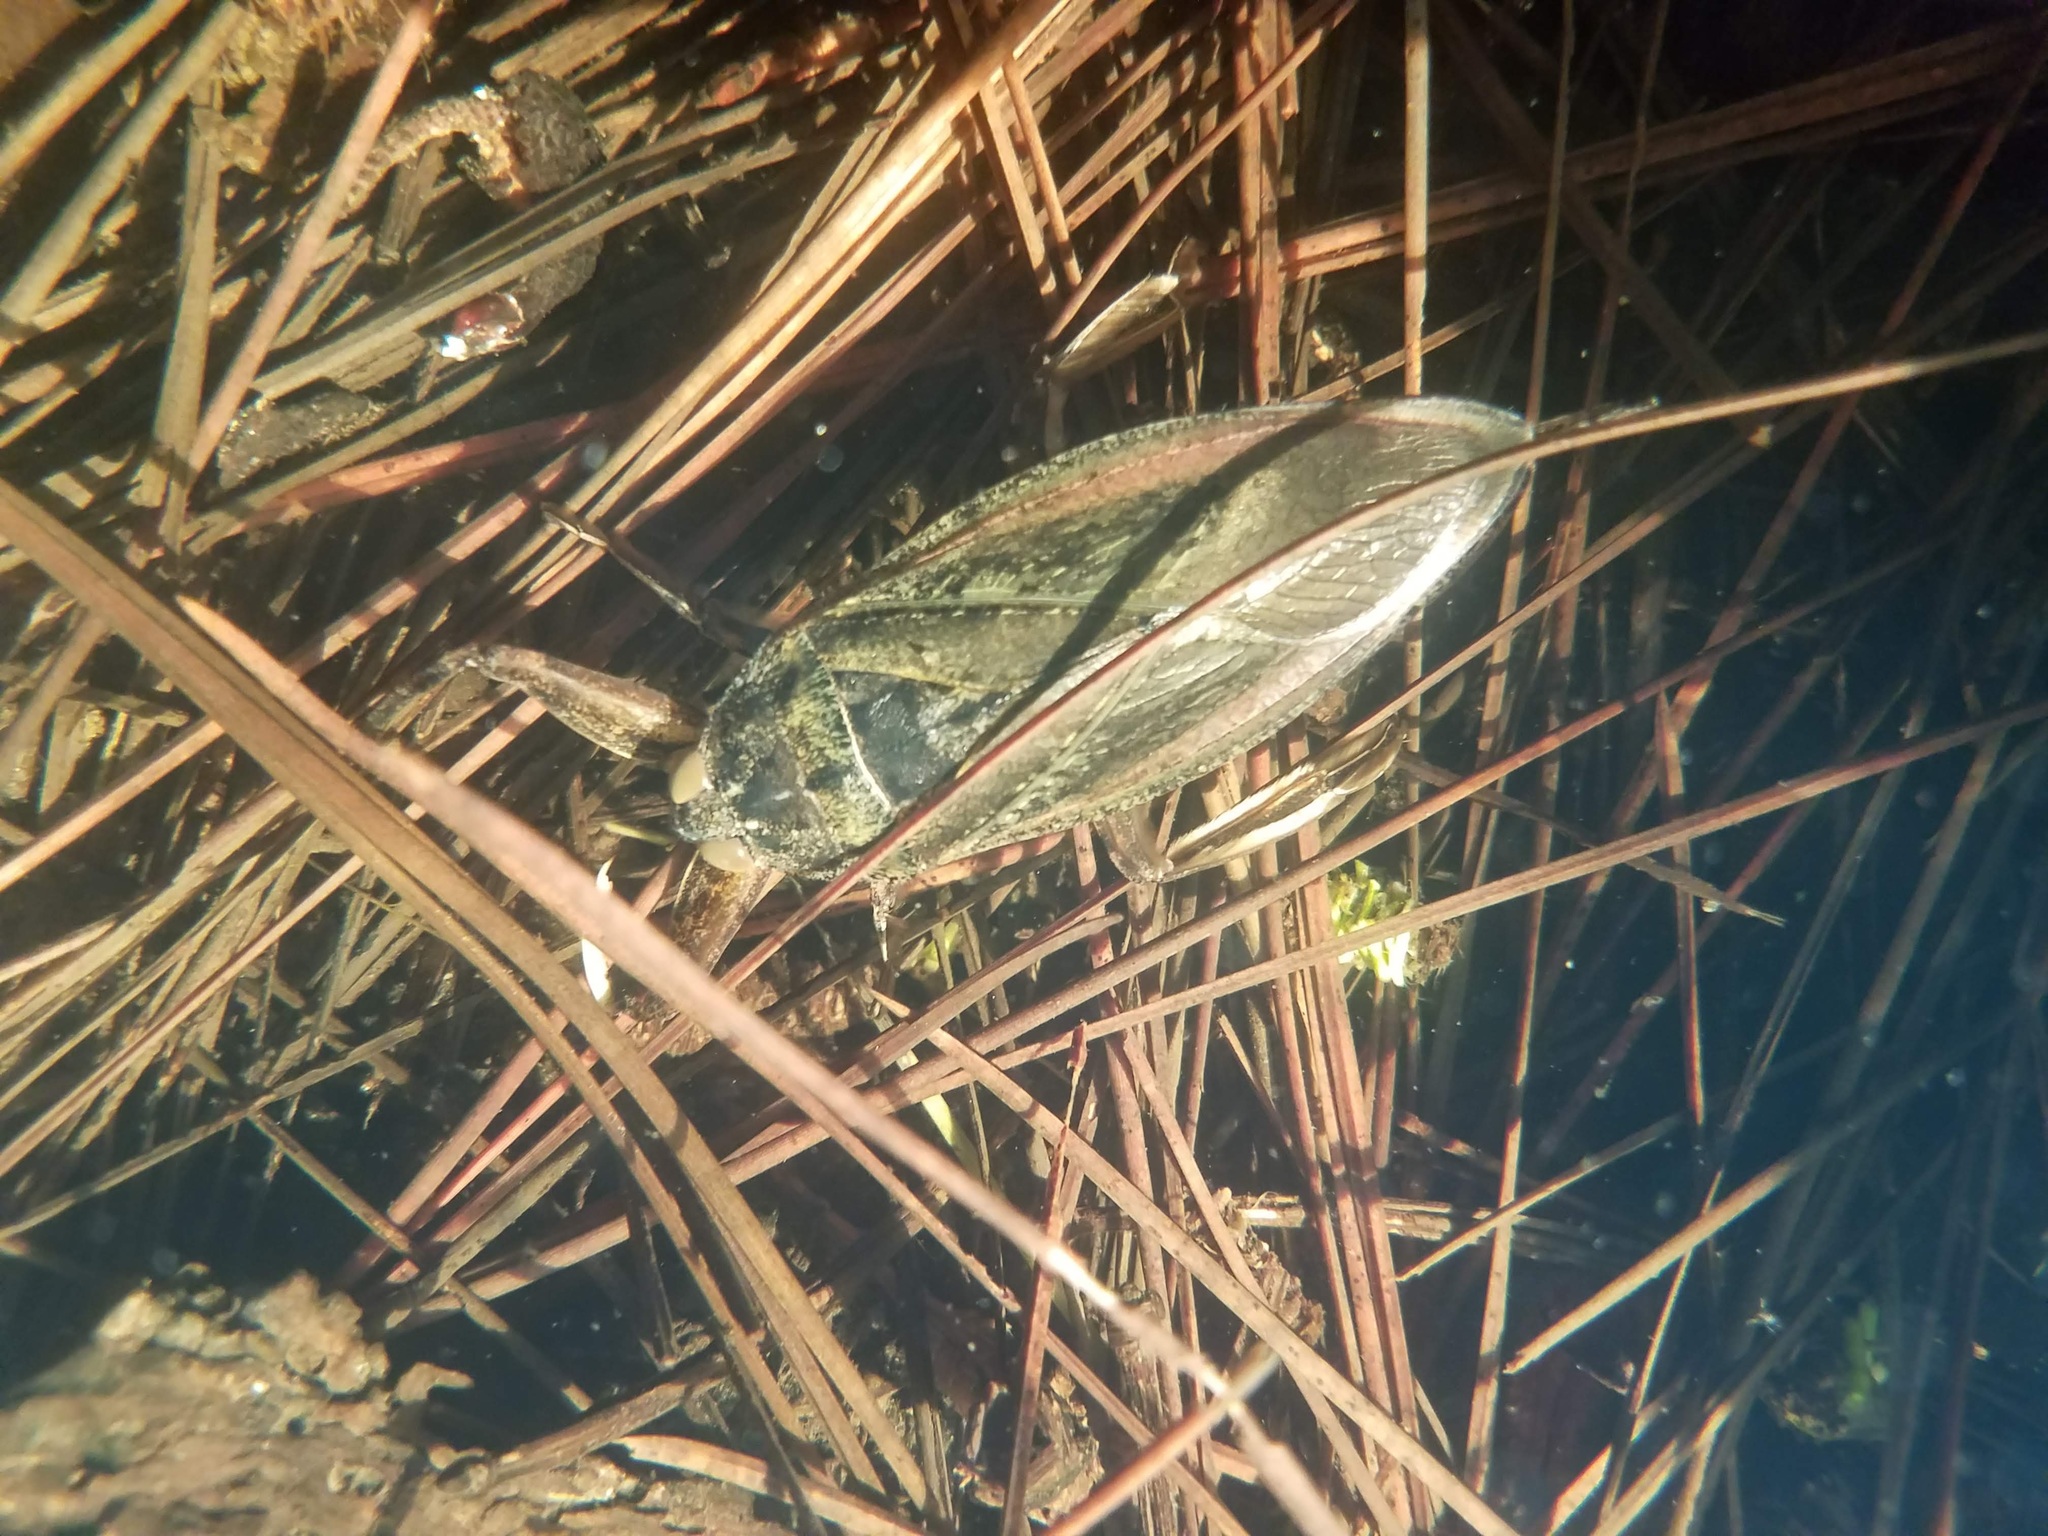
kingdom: Animalia
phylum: Arthropoda
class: Insecta
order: Hemiptera
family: Belostomatidae
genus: Lethocerus
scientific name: Lethocerus americanus
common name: Giant water bug
